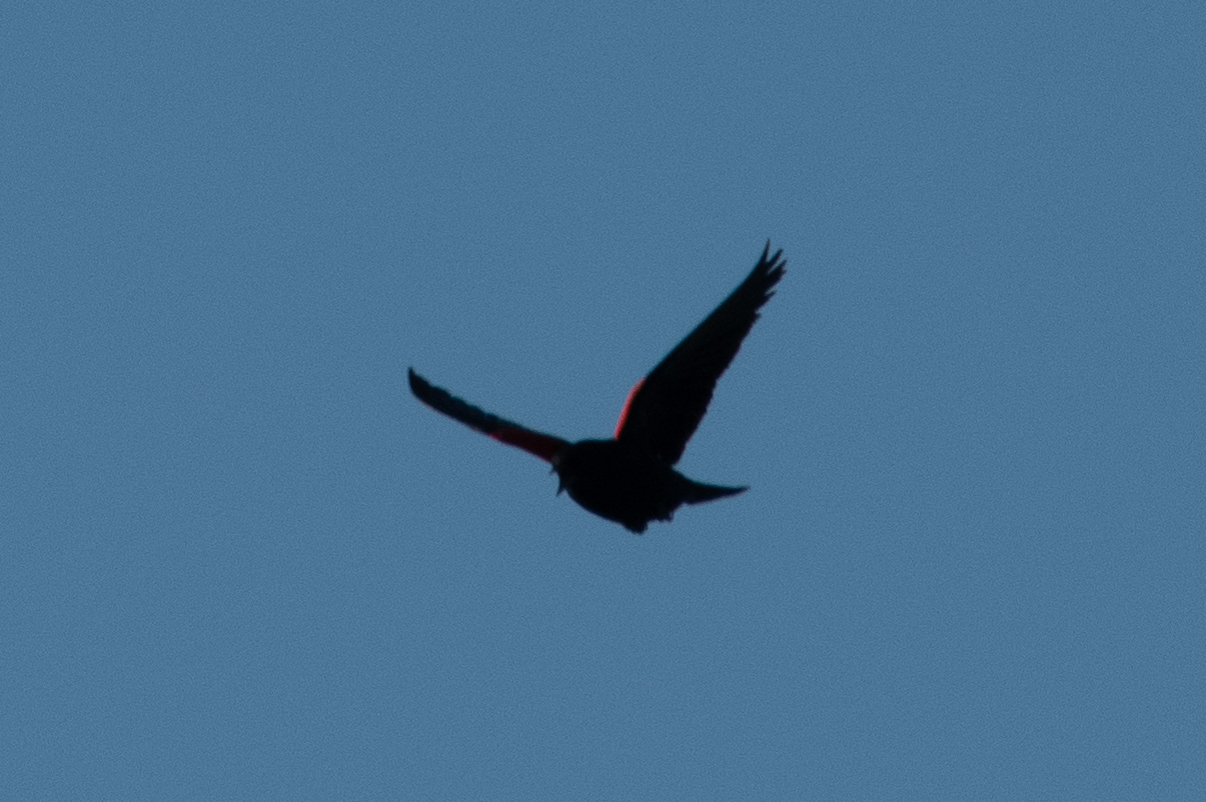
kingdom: Animalia
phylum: Chordata
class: Aves
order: Passeriformes
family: Icteridae
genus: Agelaius
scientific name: Agelaius phoeniceus
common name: Red-winged blackbird
